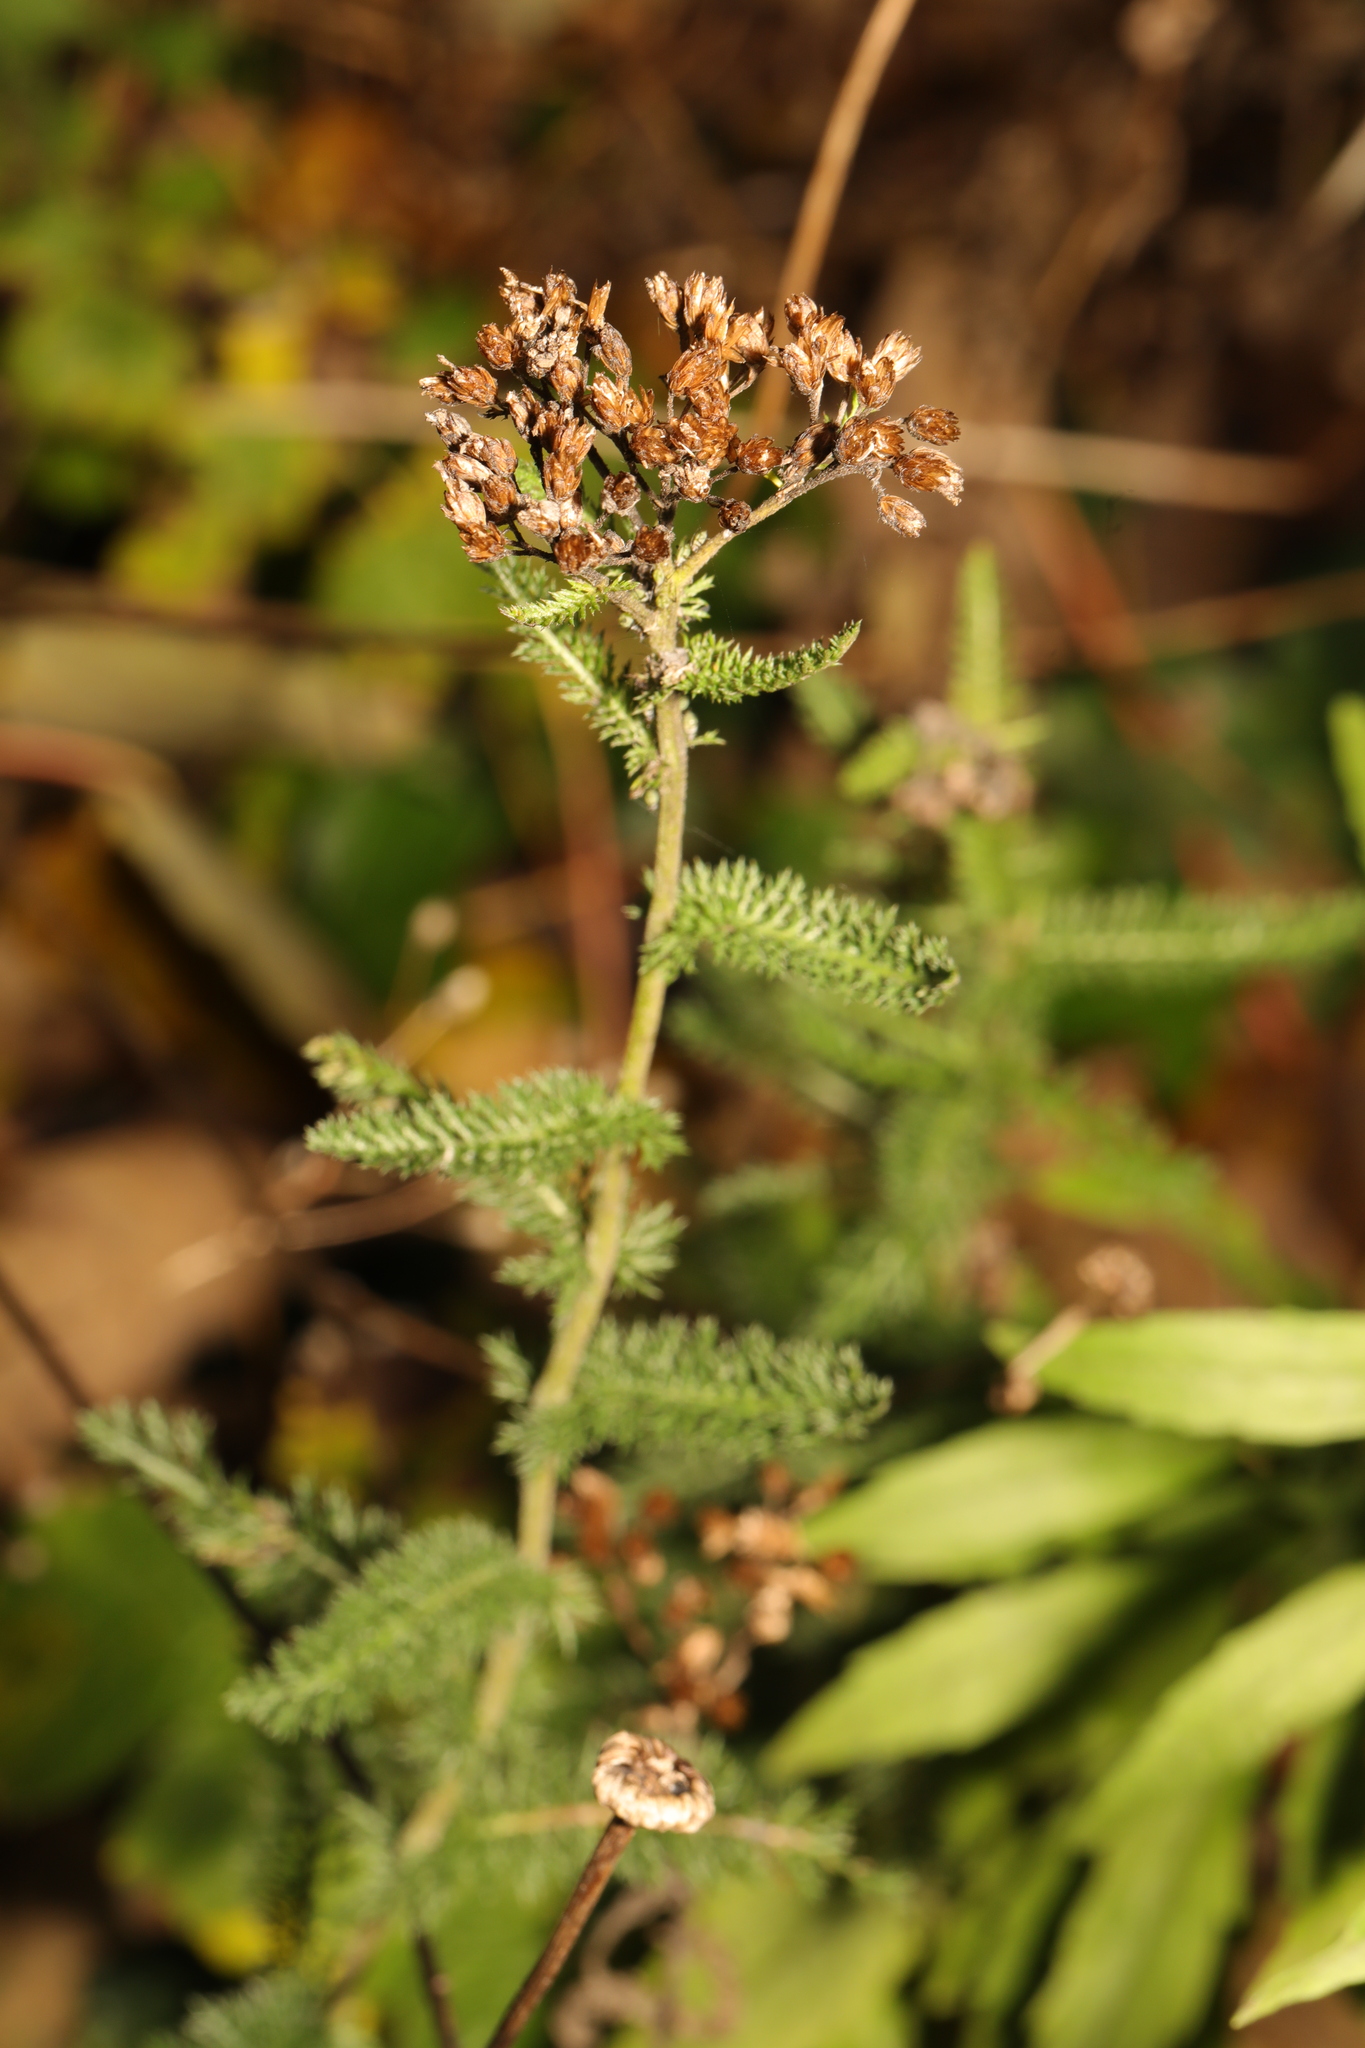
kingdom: Plantae
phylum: Tracheophyta
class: Magnoliopsida
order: Asterales
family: Asteraceae
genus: Achillea
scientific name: Achillea millefolium
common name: Yarrow
